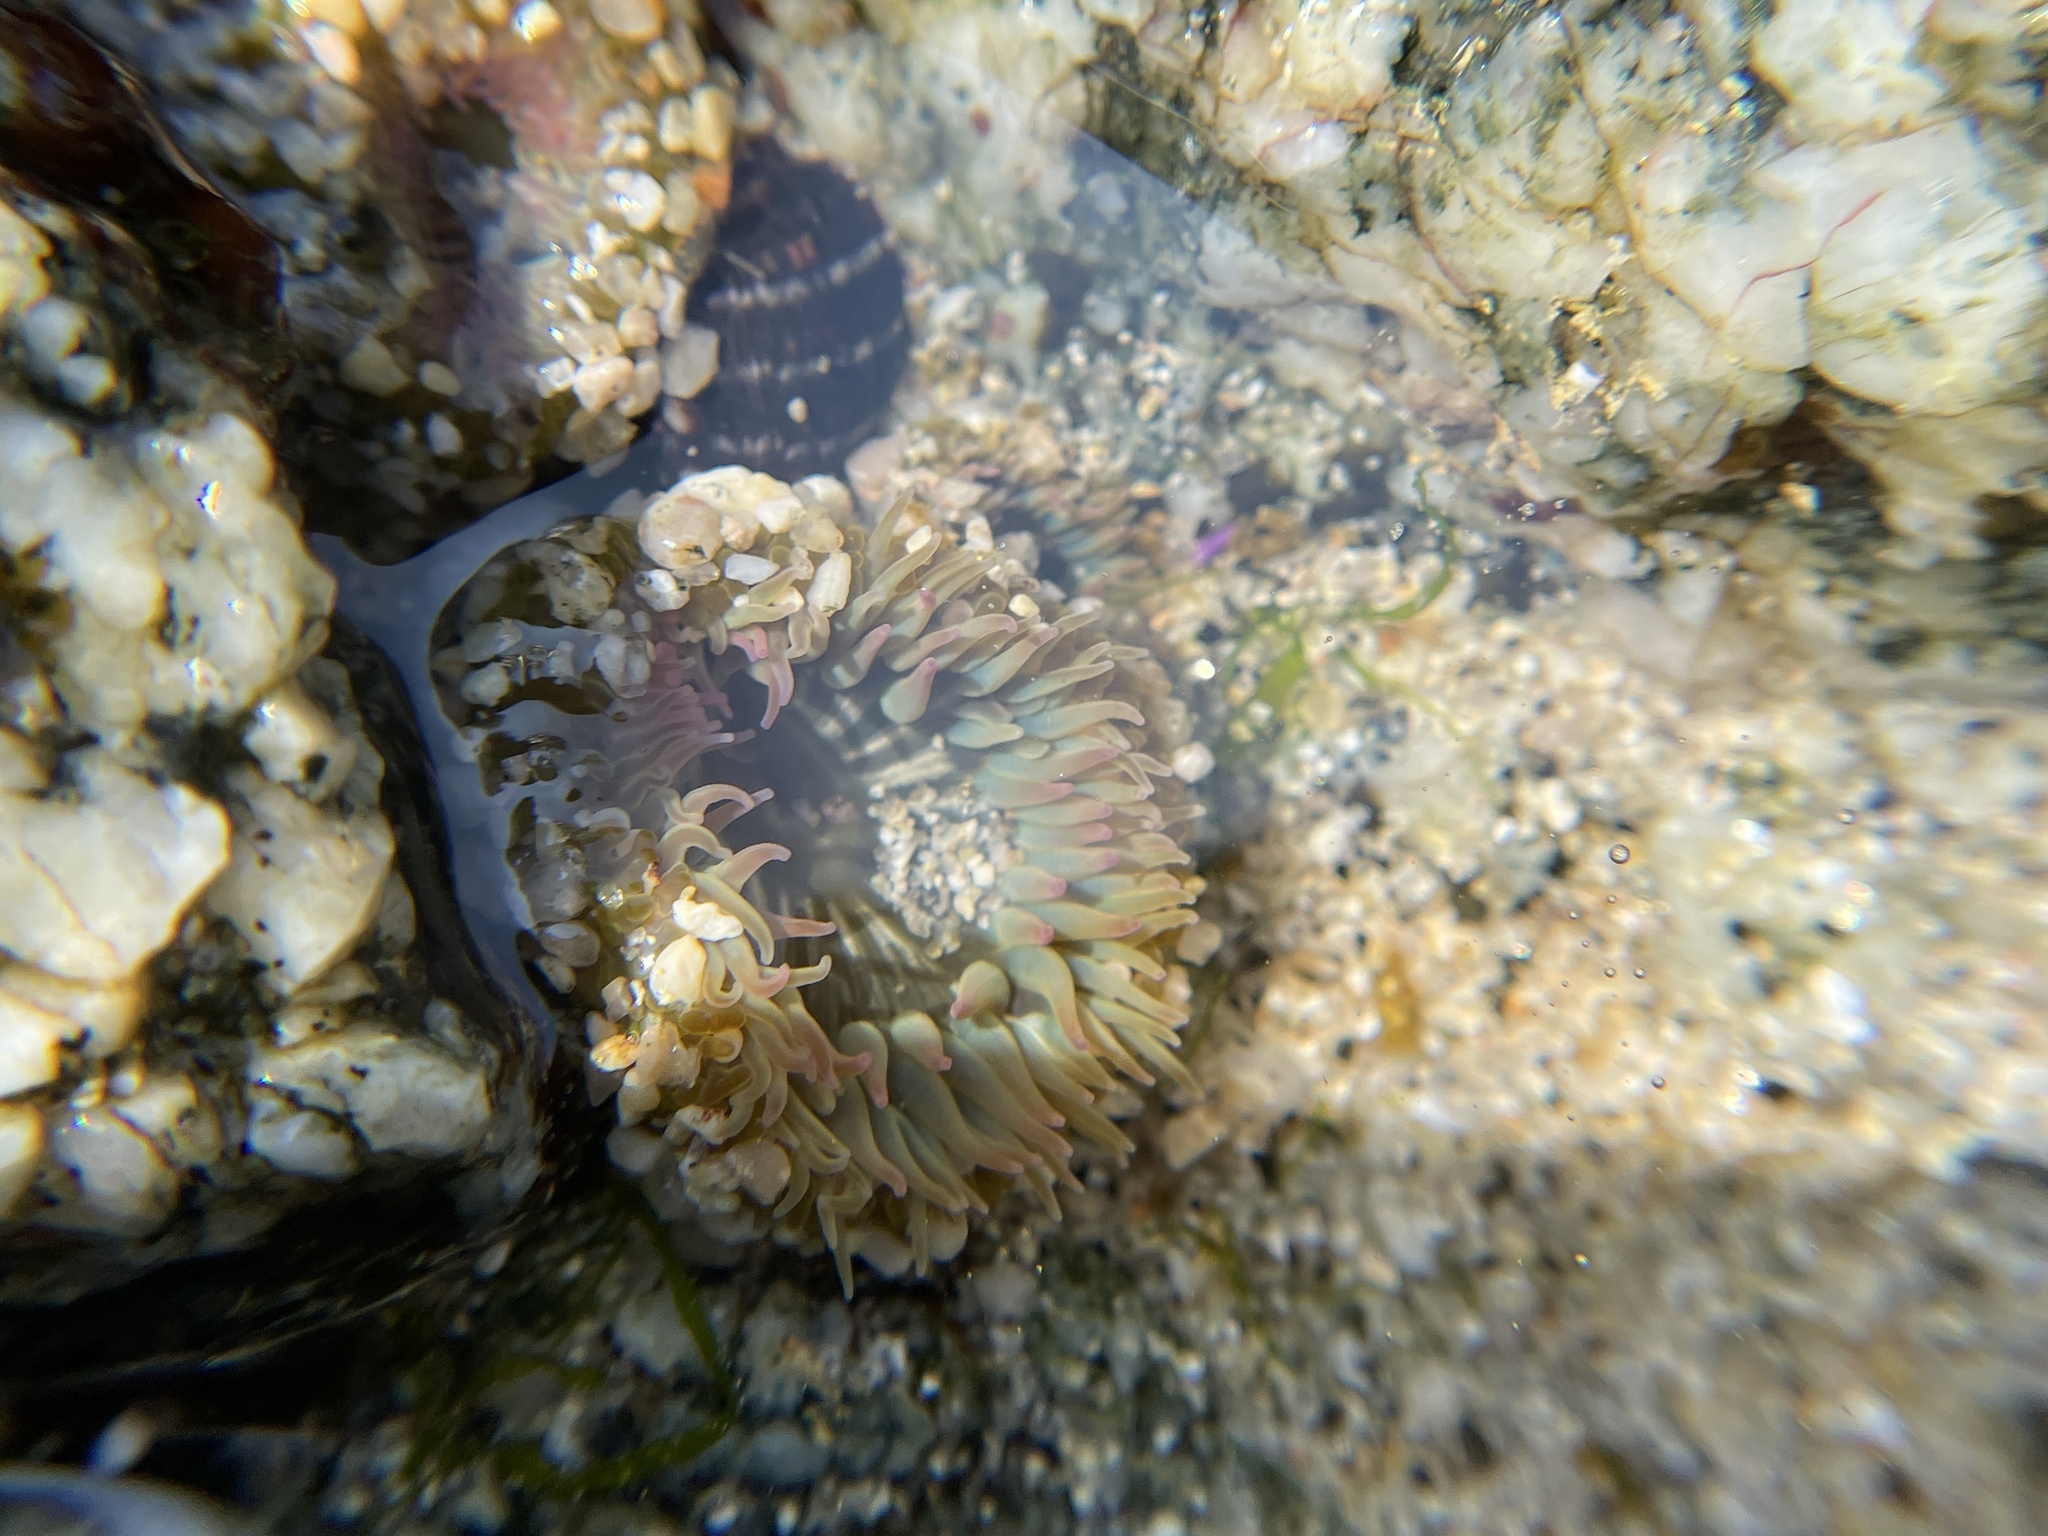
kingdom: Animalia
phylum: Cnidaria
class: Anthozoa
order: Actiniaria
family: Actiniidae
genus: Anthopleura
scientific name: Anthopleura elegantissima
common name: Clonal anemone
